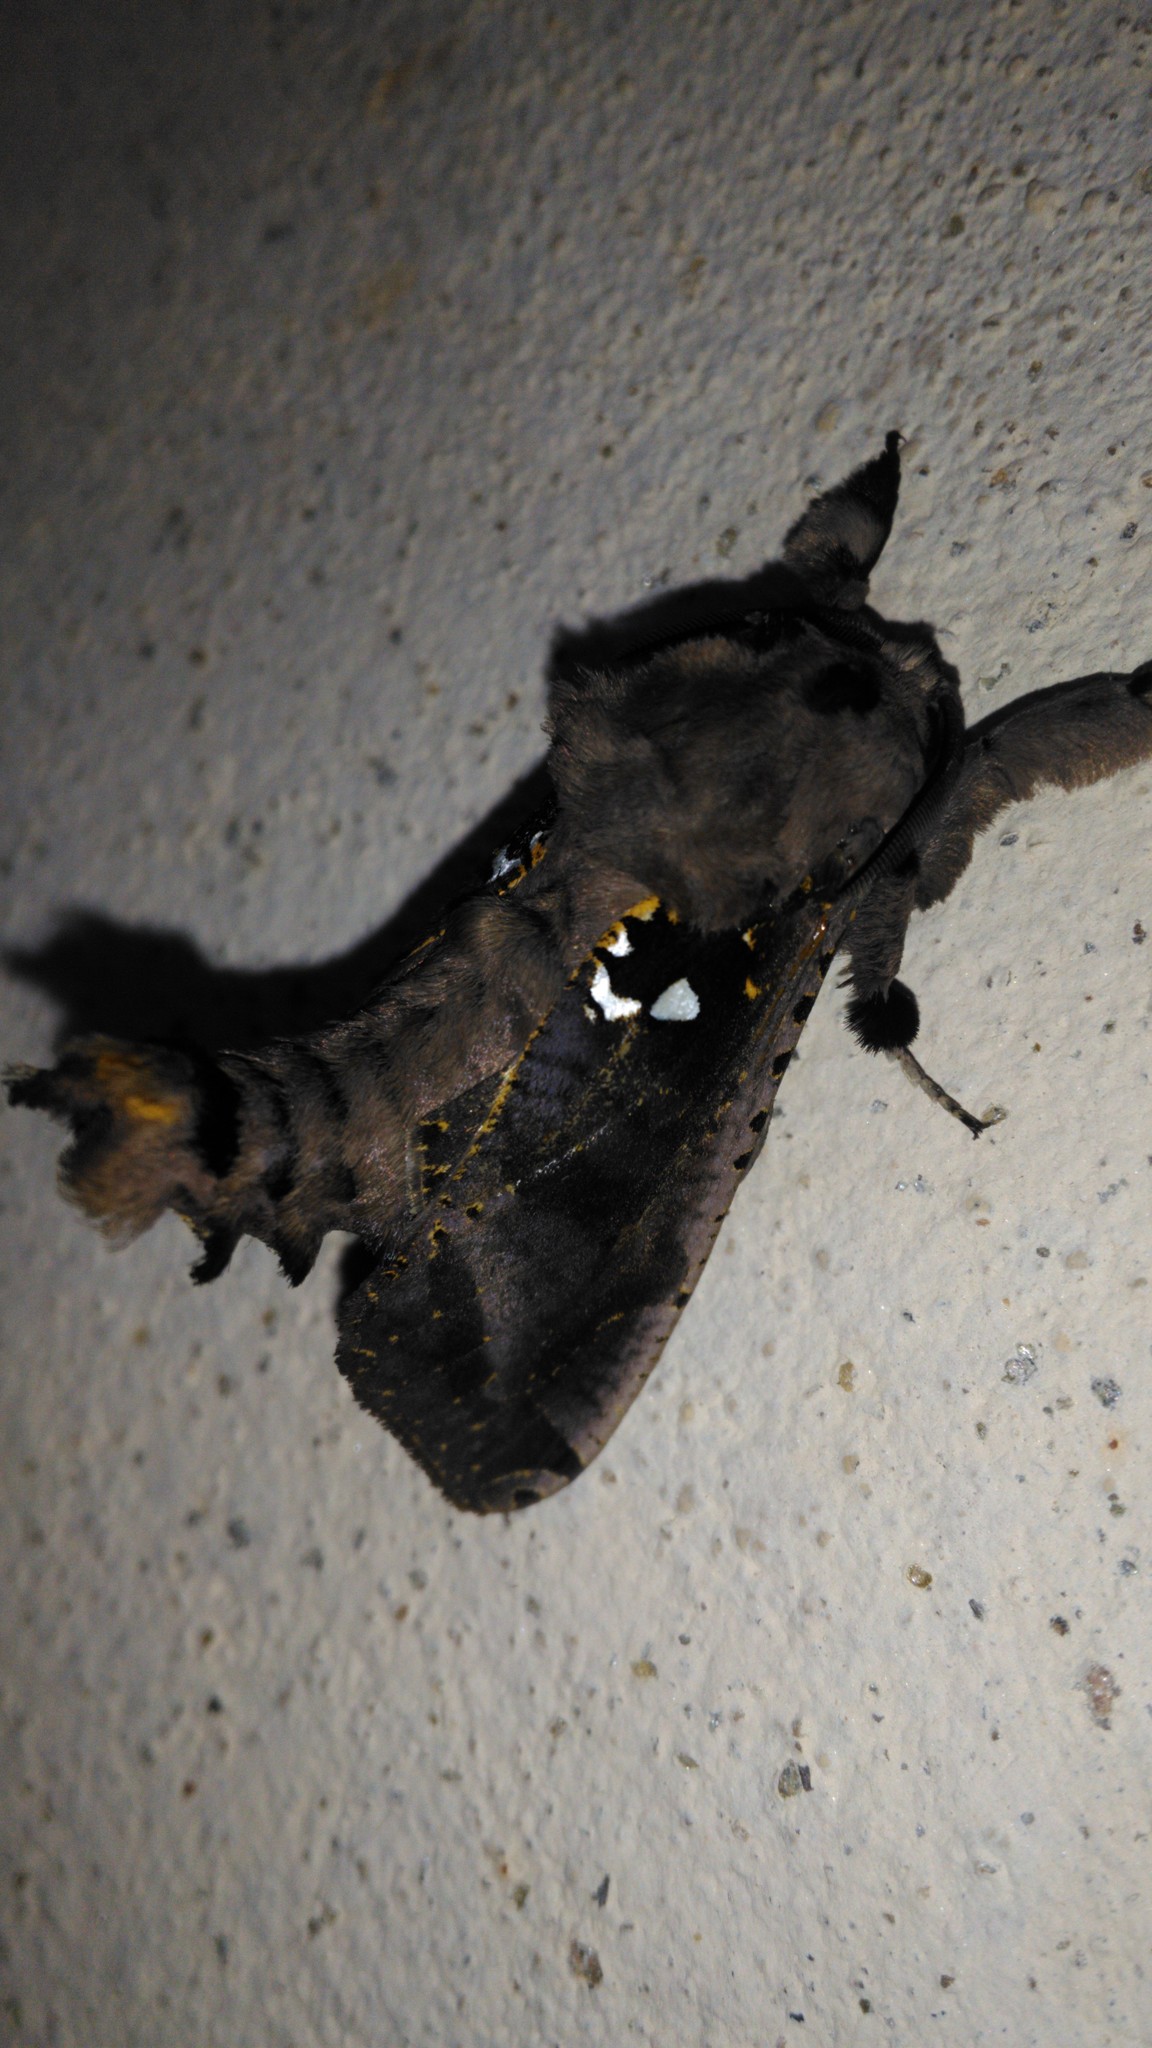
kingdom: Animalia
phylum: Arthropoda
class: Insecta
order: Lepidoptera
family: Cossidae
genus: Langsdorfia
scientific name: Langsdorfia franckii
